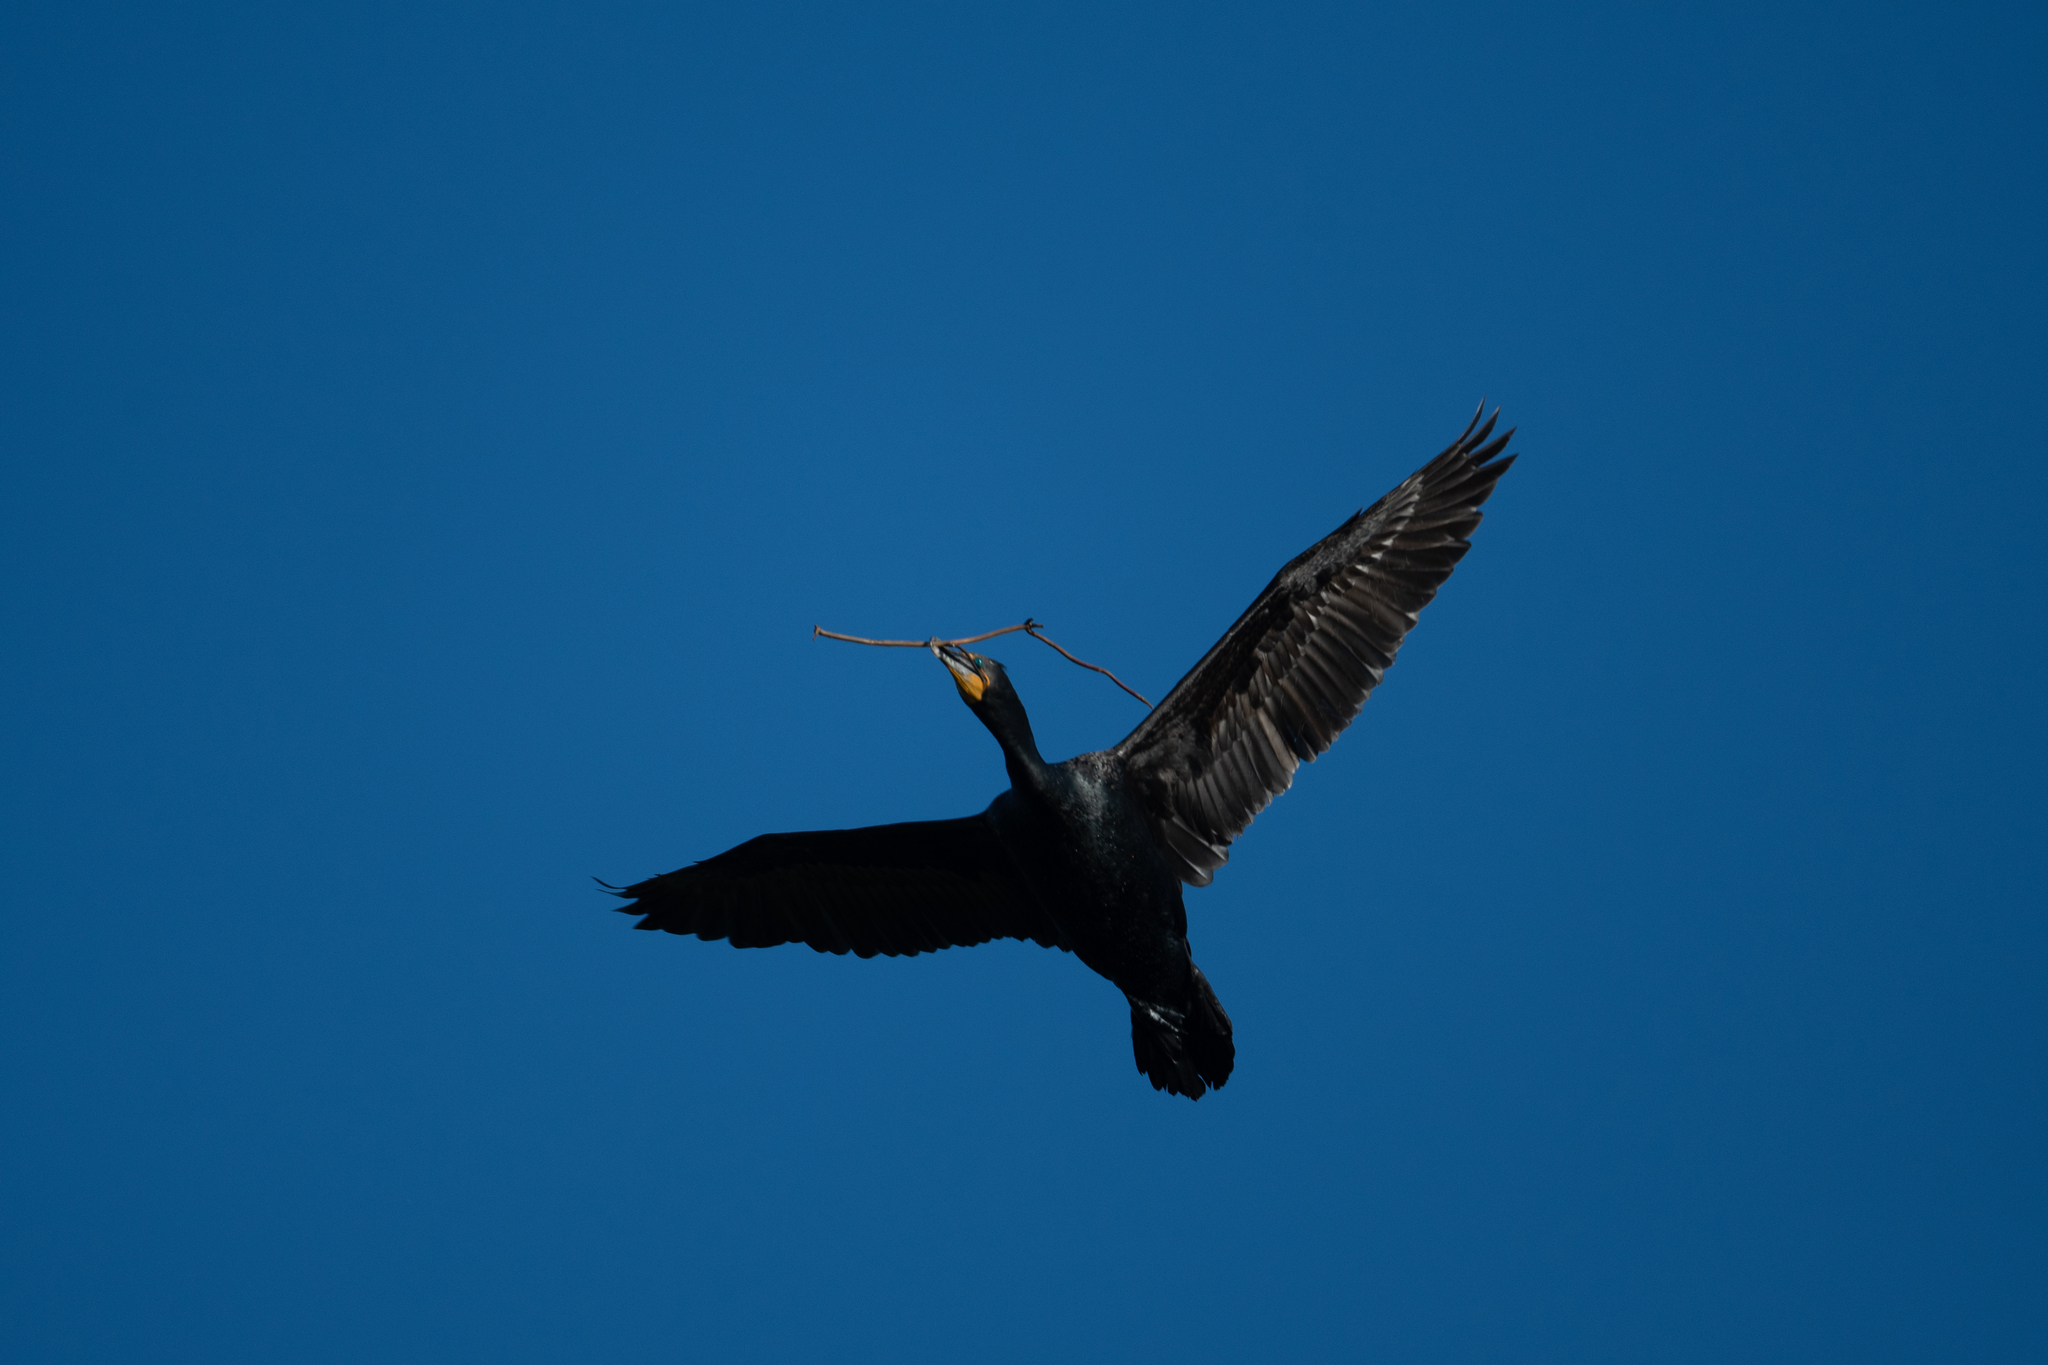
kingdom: Animalia
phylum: Chordata
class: Aves
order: Suliformes
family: Phalacrocoracidae
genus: Phalacrocorax
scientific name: Phalacrocorax auritus
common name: Double-crested cormorant
